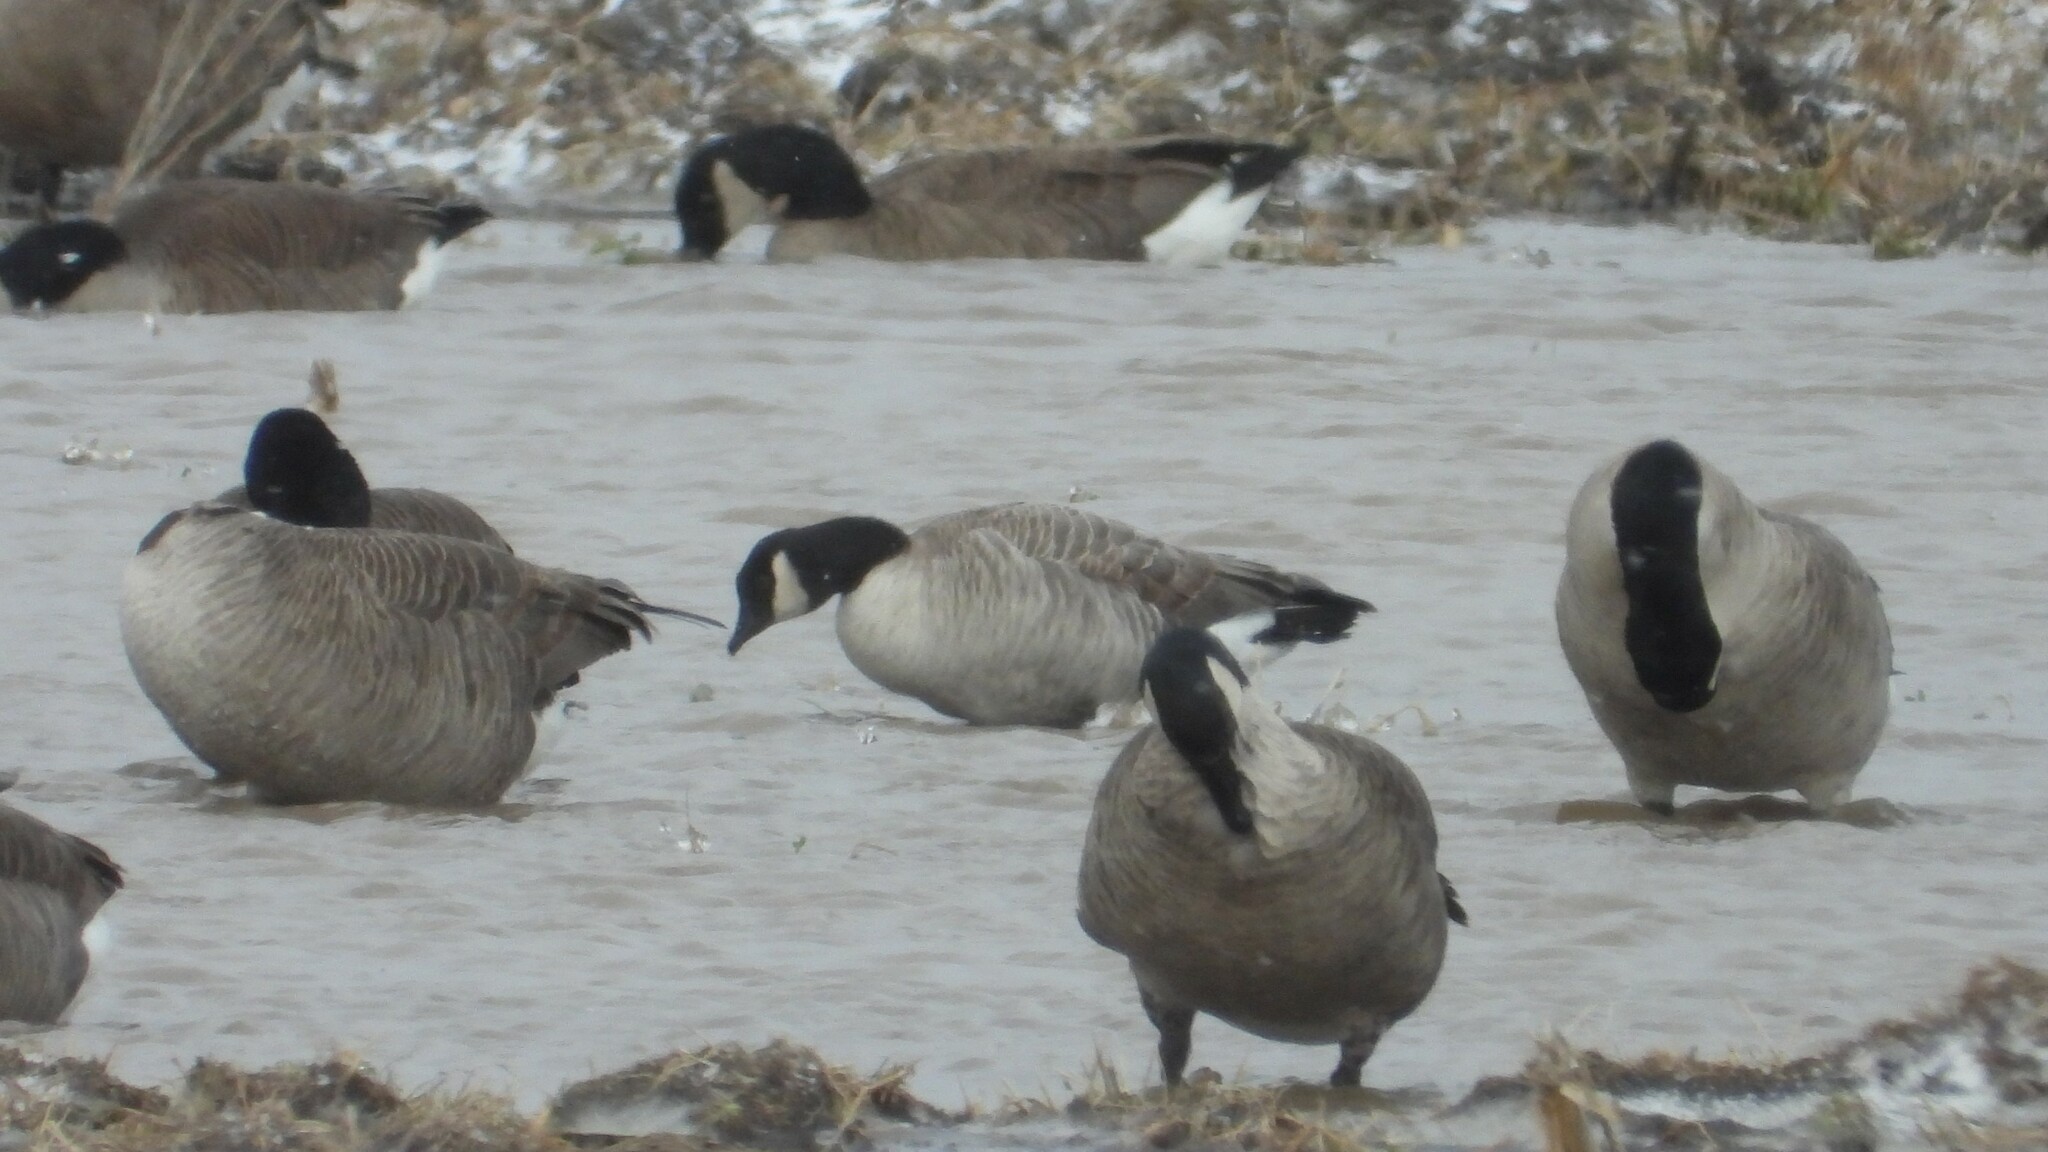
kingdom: Animalia
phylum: Chordata
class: Aves
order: Anseriformes
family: Anatidae
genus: Branta
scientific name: Branta hutchinsii
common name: Cackling goose
